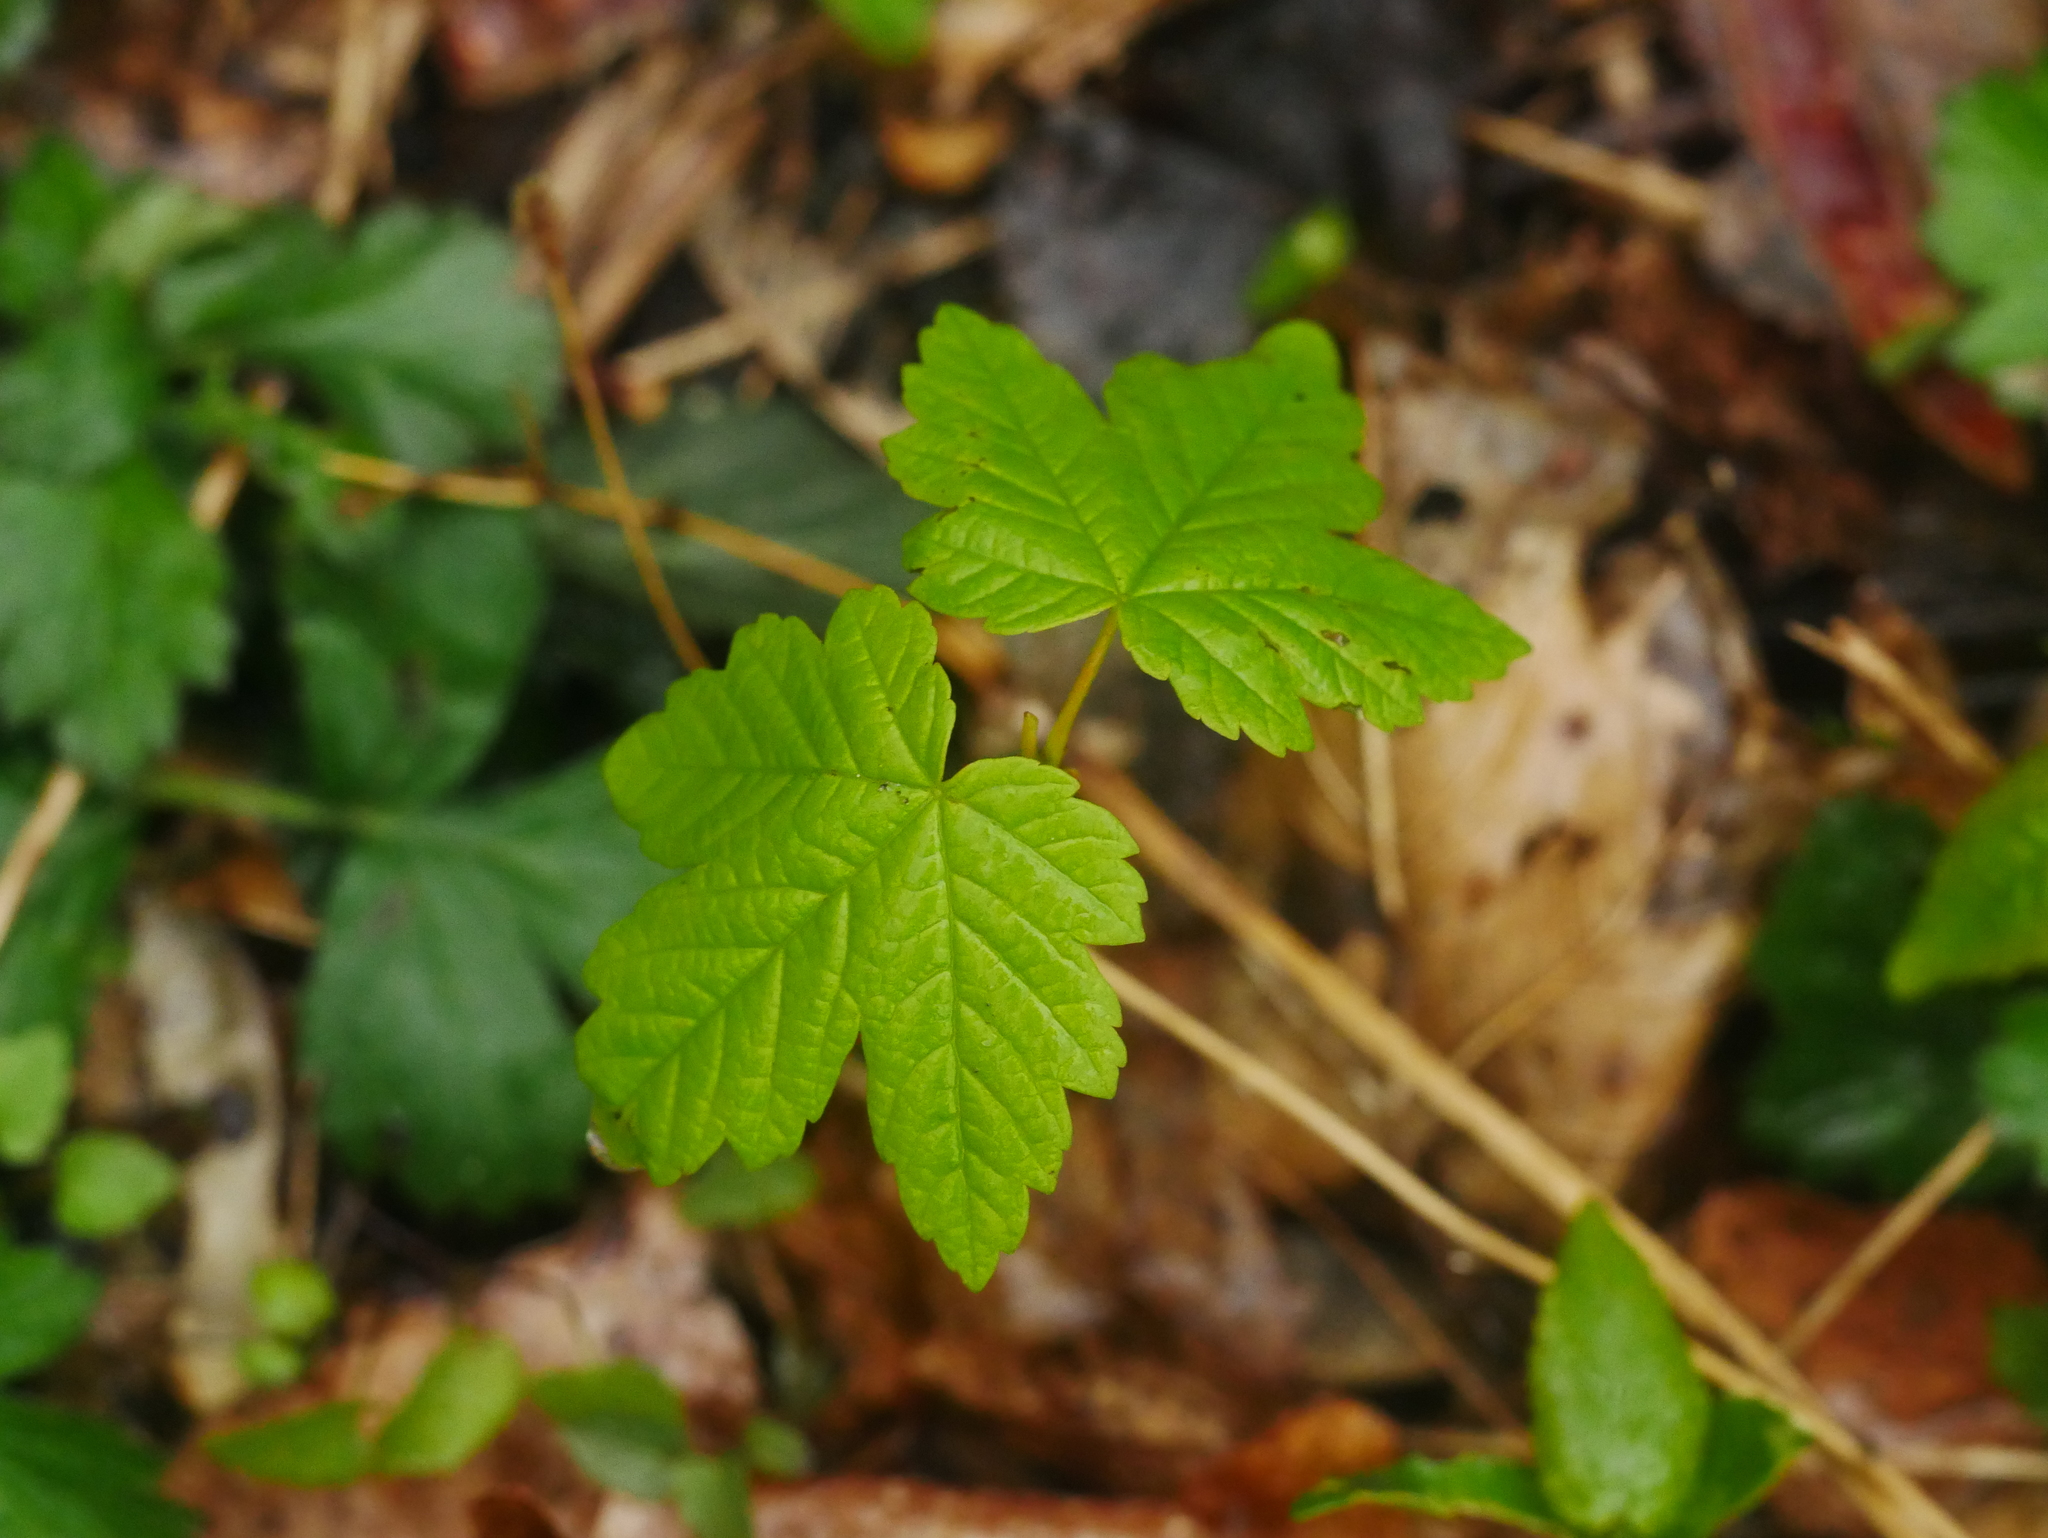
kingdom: Plantae
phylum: Tracheophyta
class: Magnoliopsida
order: Sapindales
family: Sapindaceae
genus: Acer
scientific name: Acer pseudoplatanus
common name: Sycamore
